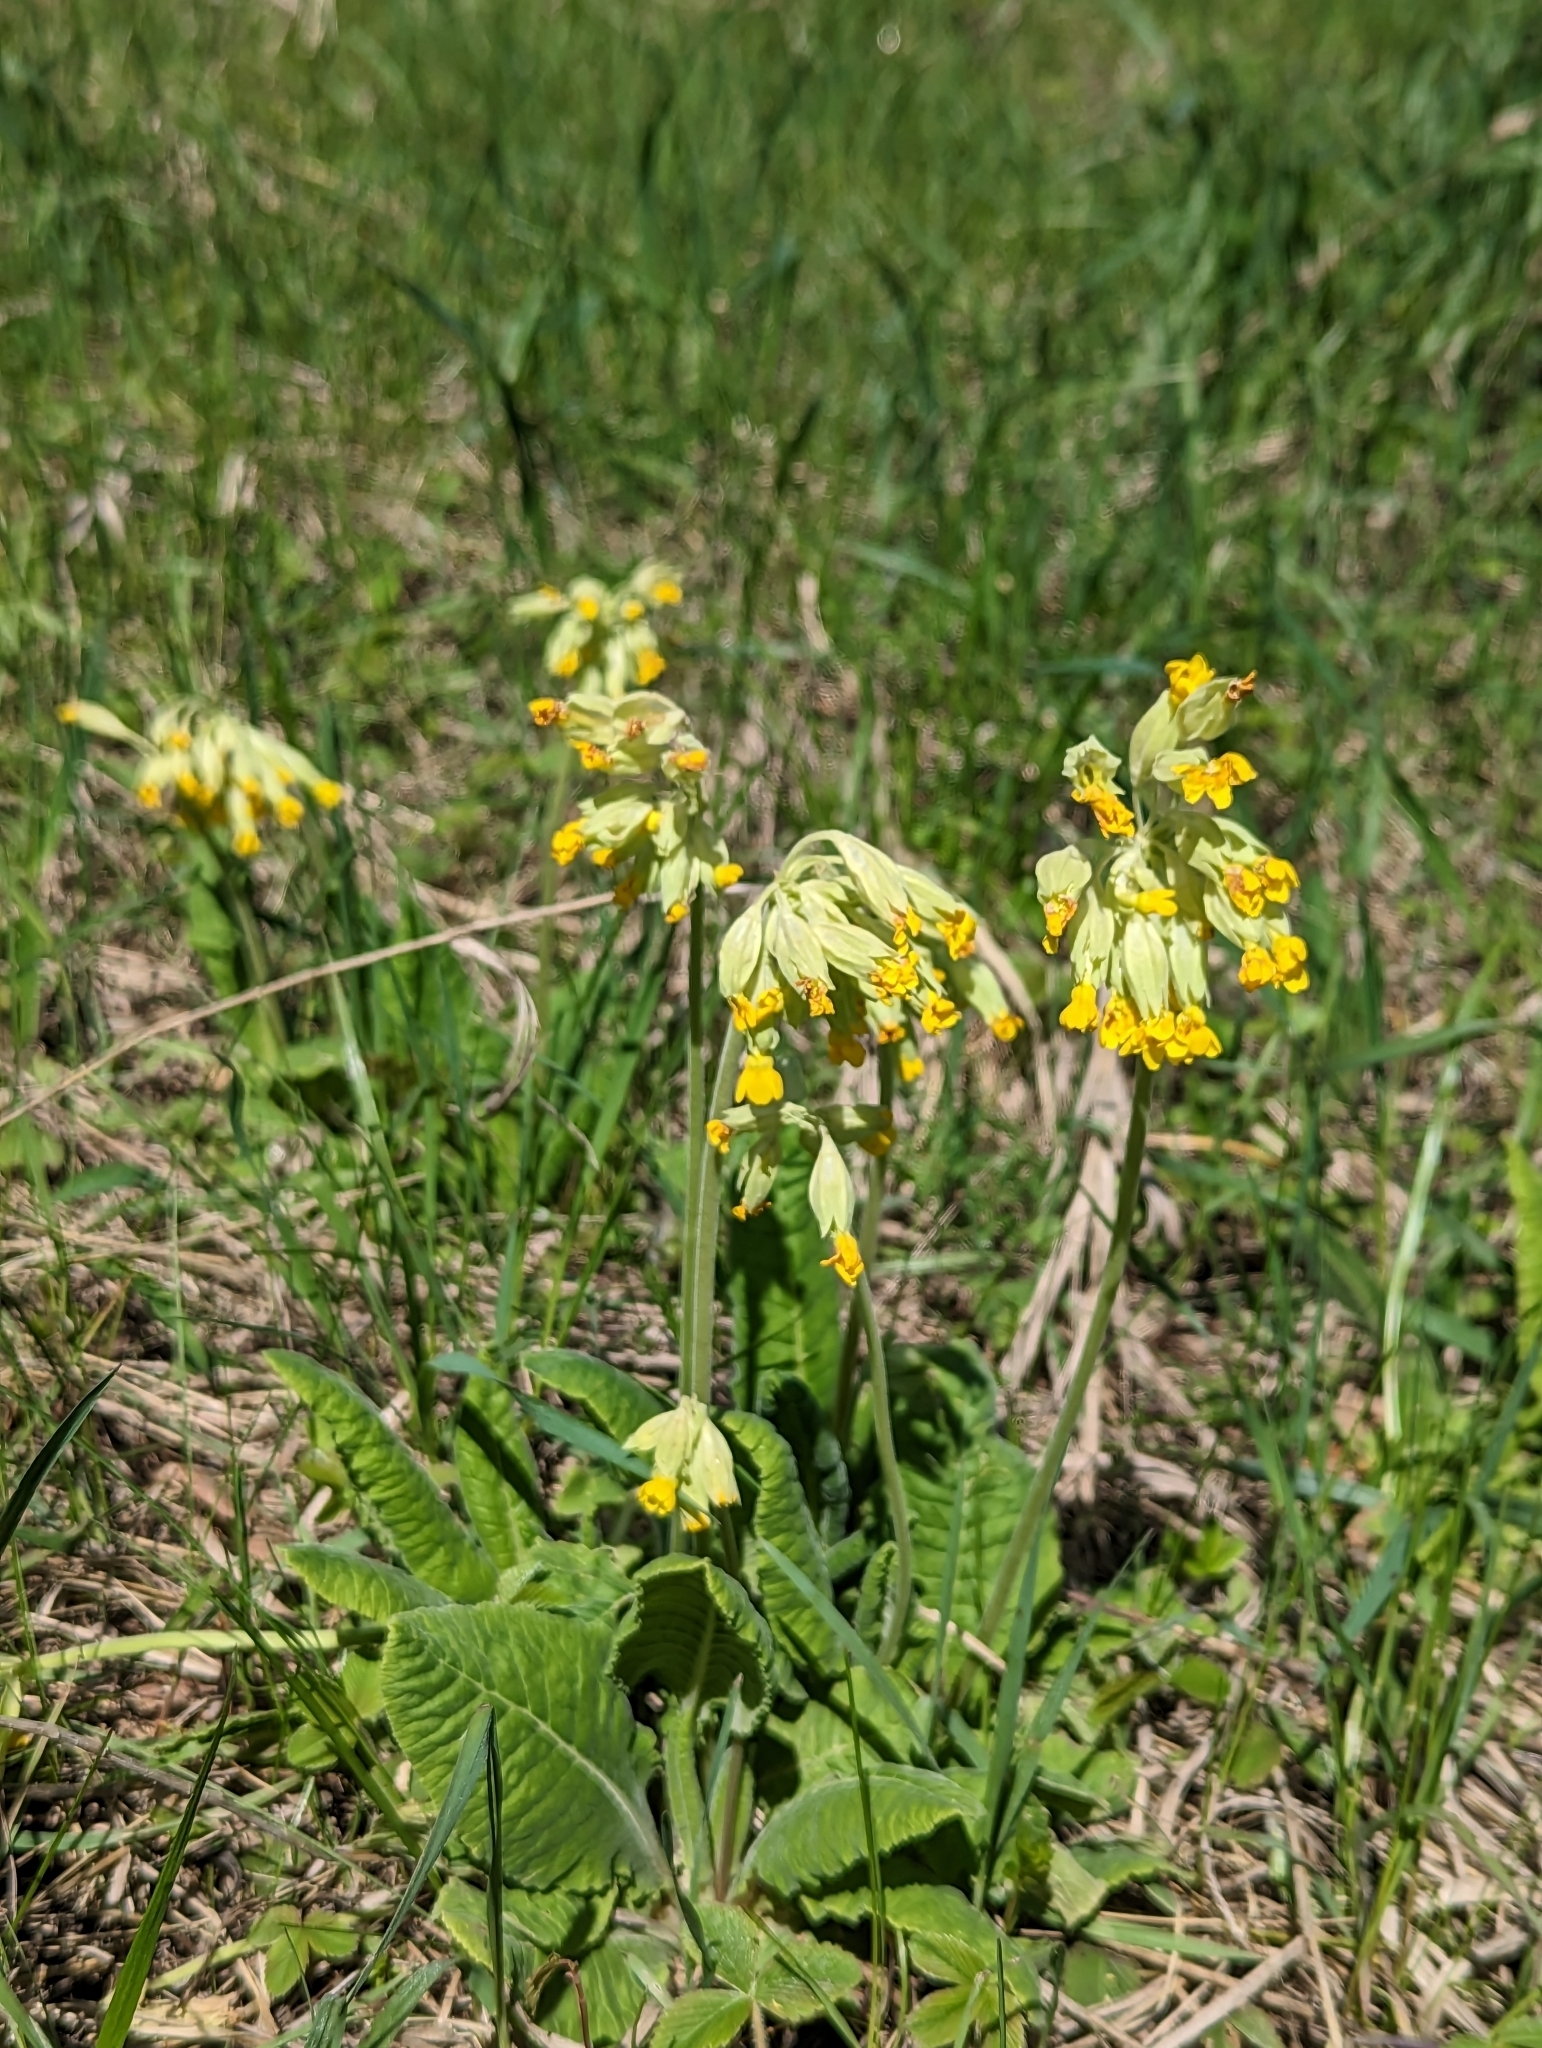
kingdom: Plantae
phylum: Tracheophyta
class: Magnoliopsida
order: Ericales
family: Primulaceae
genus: Primula
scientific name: Primula veris
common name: Cowslip
